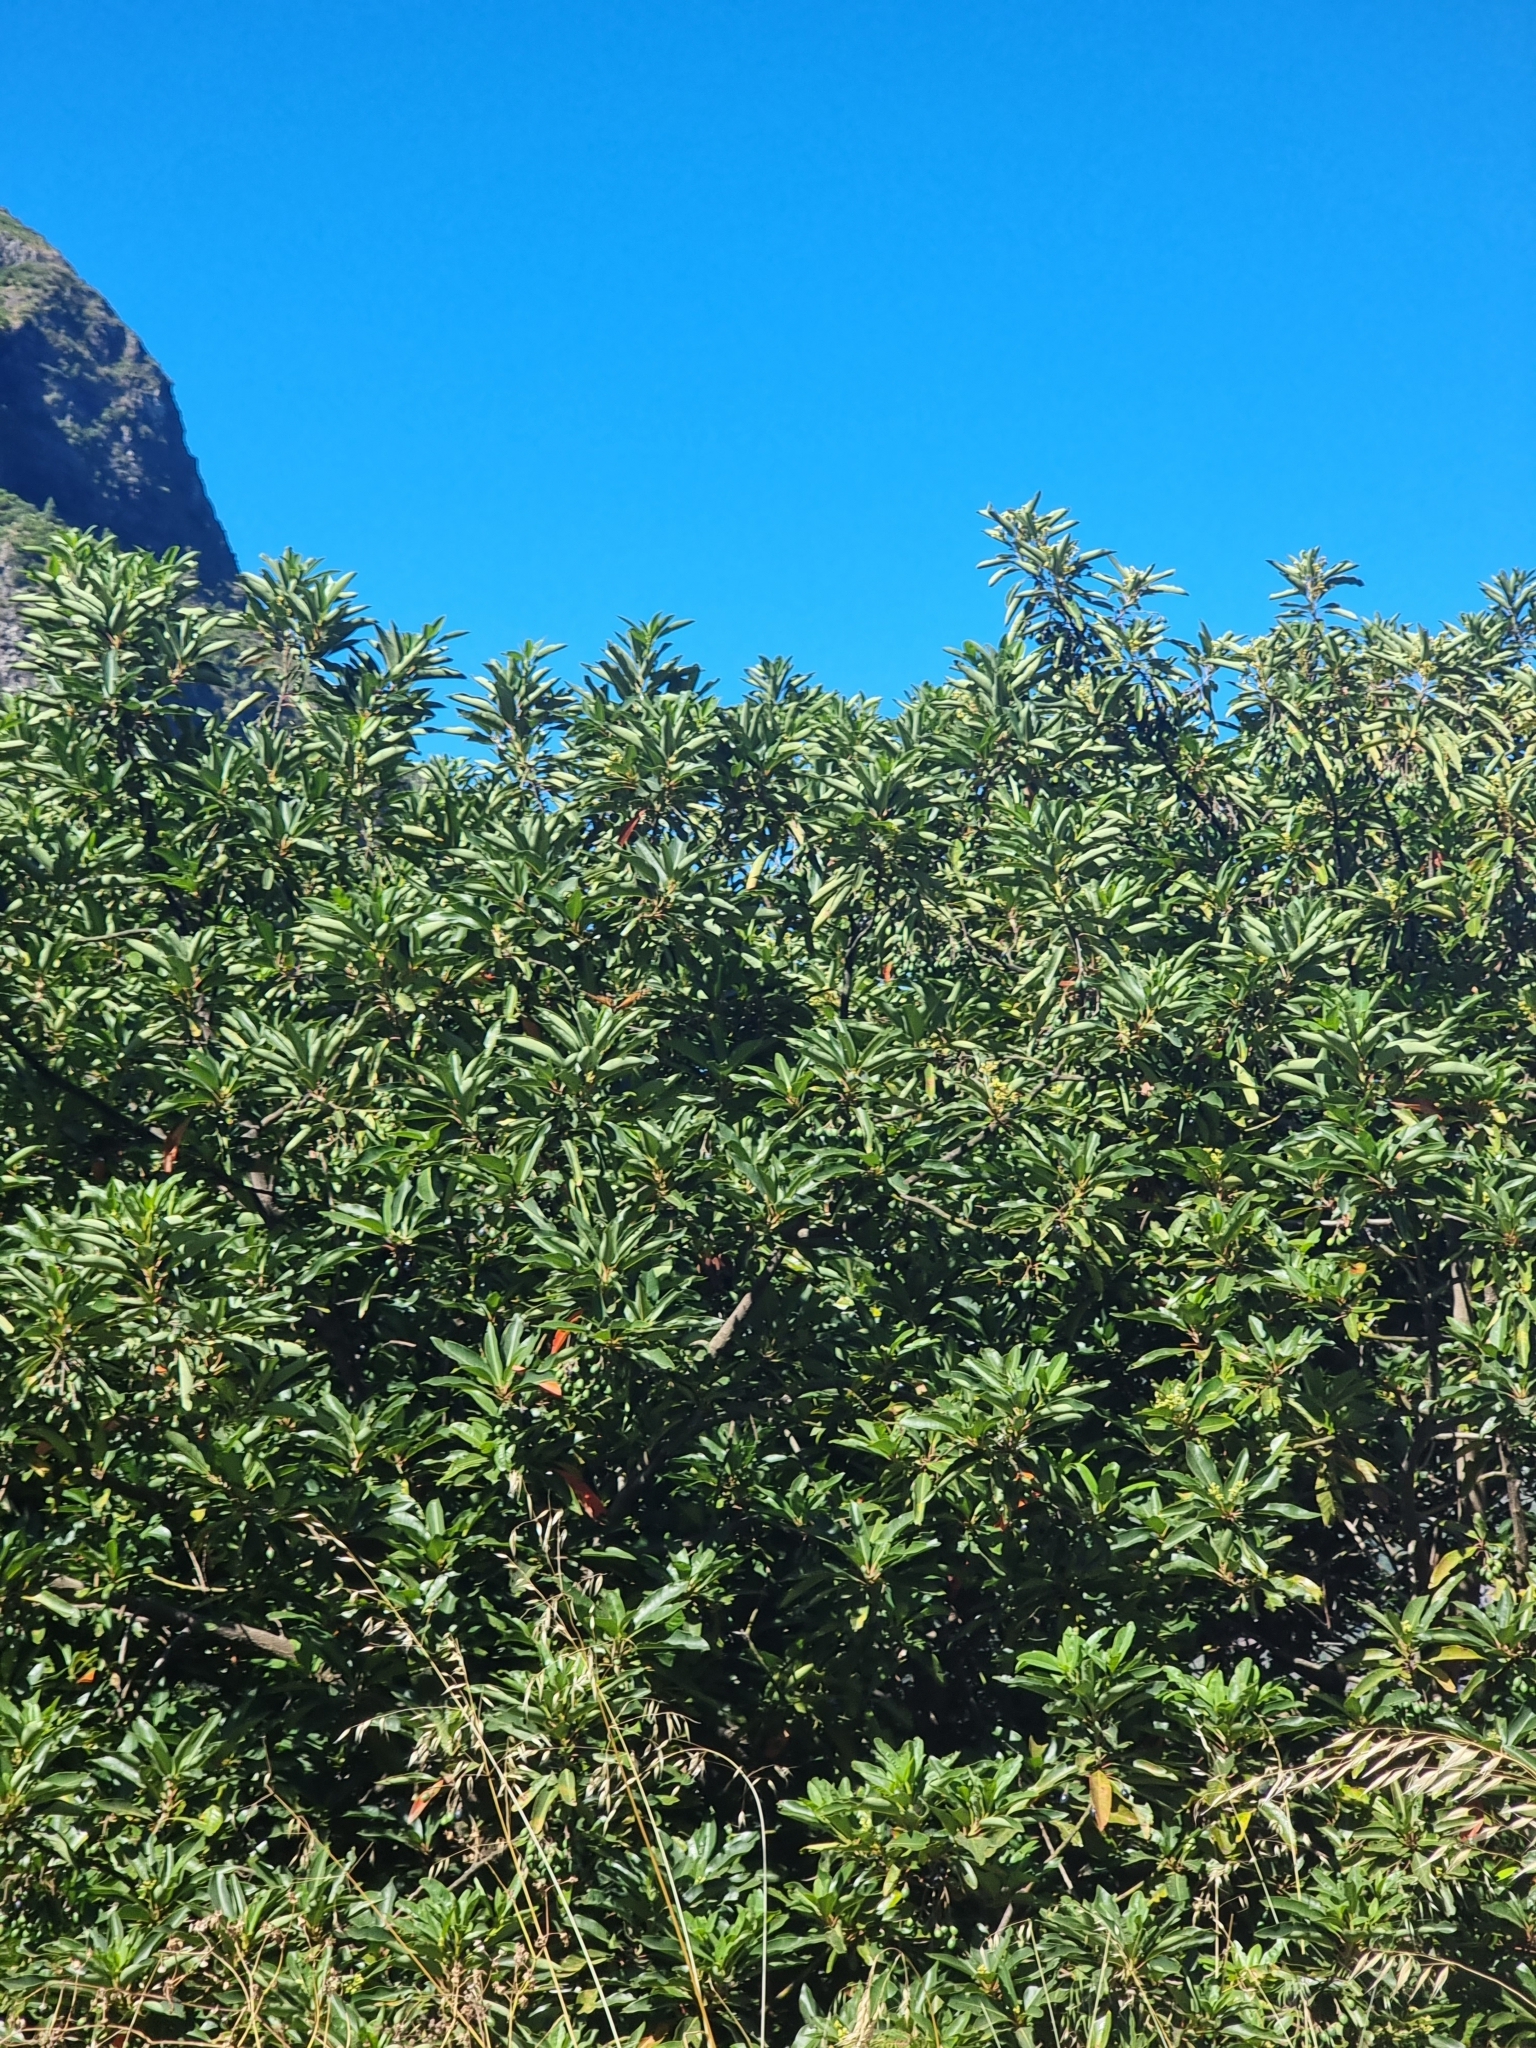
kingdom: Plantae
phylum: Tracheophyta
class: Magnoliopsida
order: Laurales
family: Lauraceae
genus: Persea
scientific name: Persea indica
